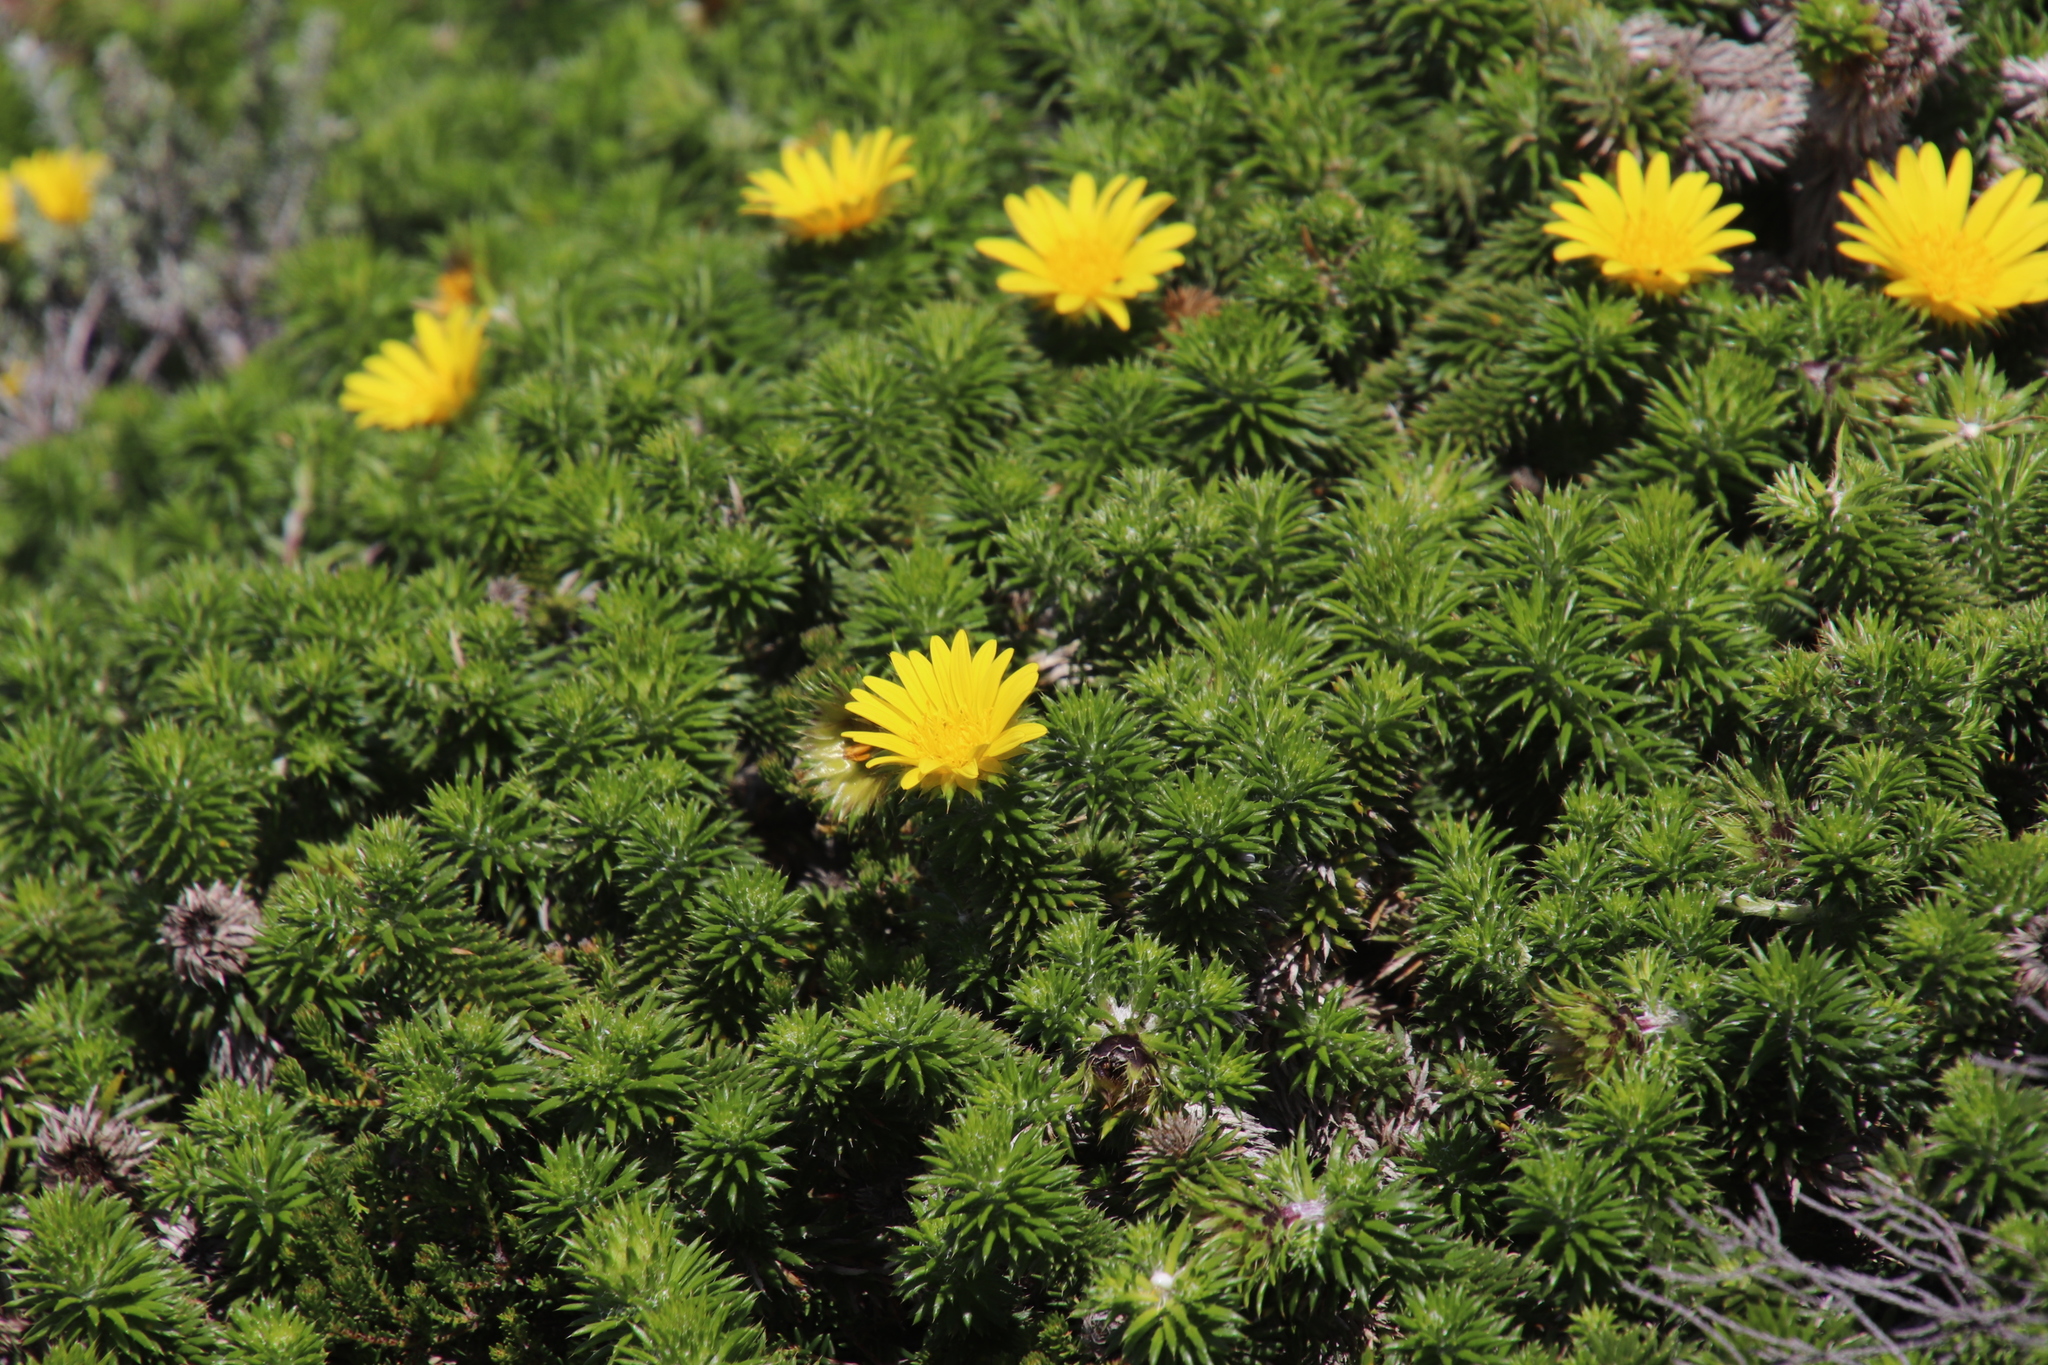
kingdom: Plantae
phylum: Tracheophyta
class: Magnoliopsida
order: Asterales
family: Asteraceae
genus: Cullumia
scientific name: Cullumia squarrosa
